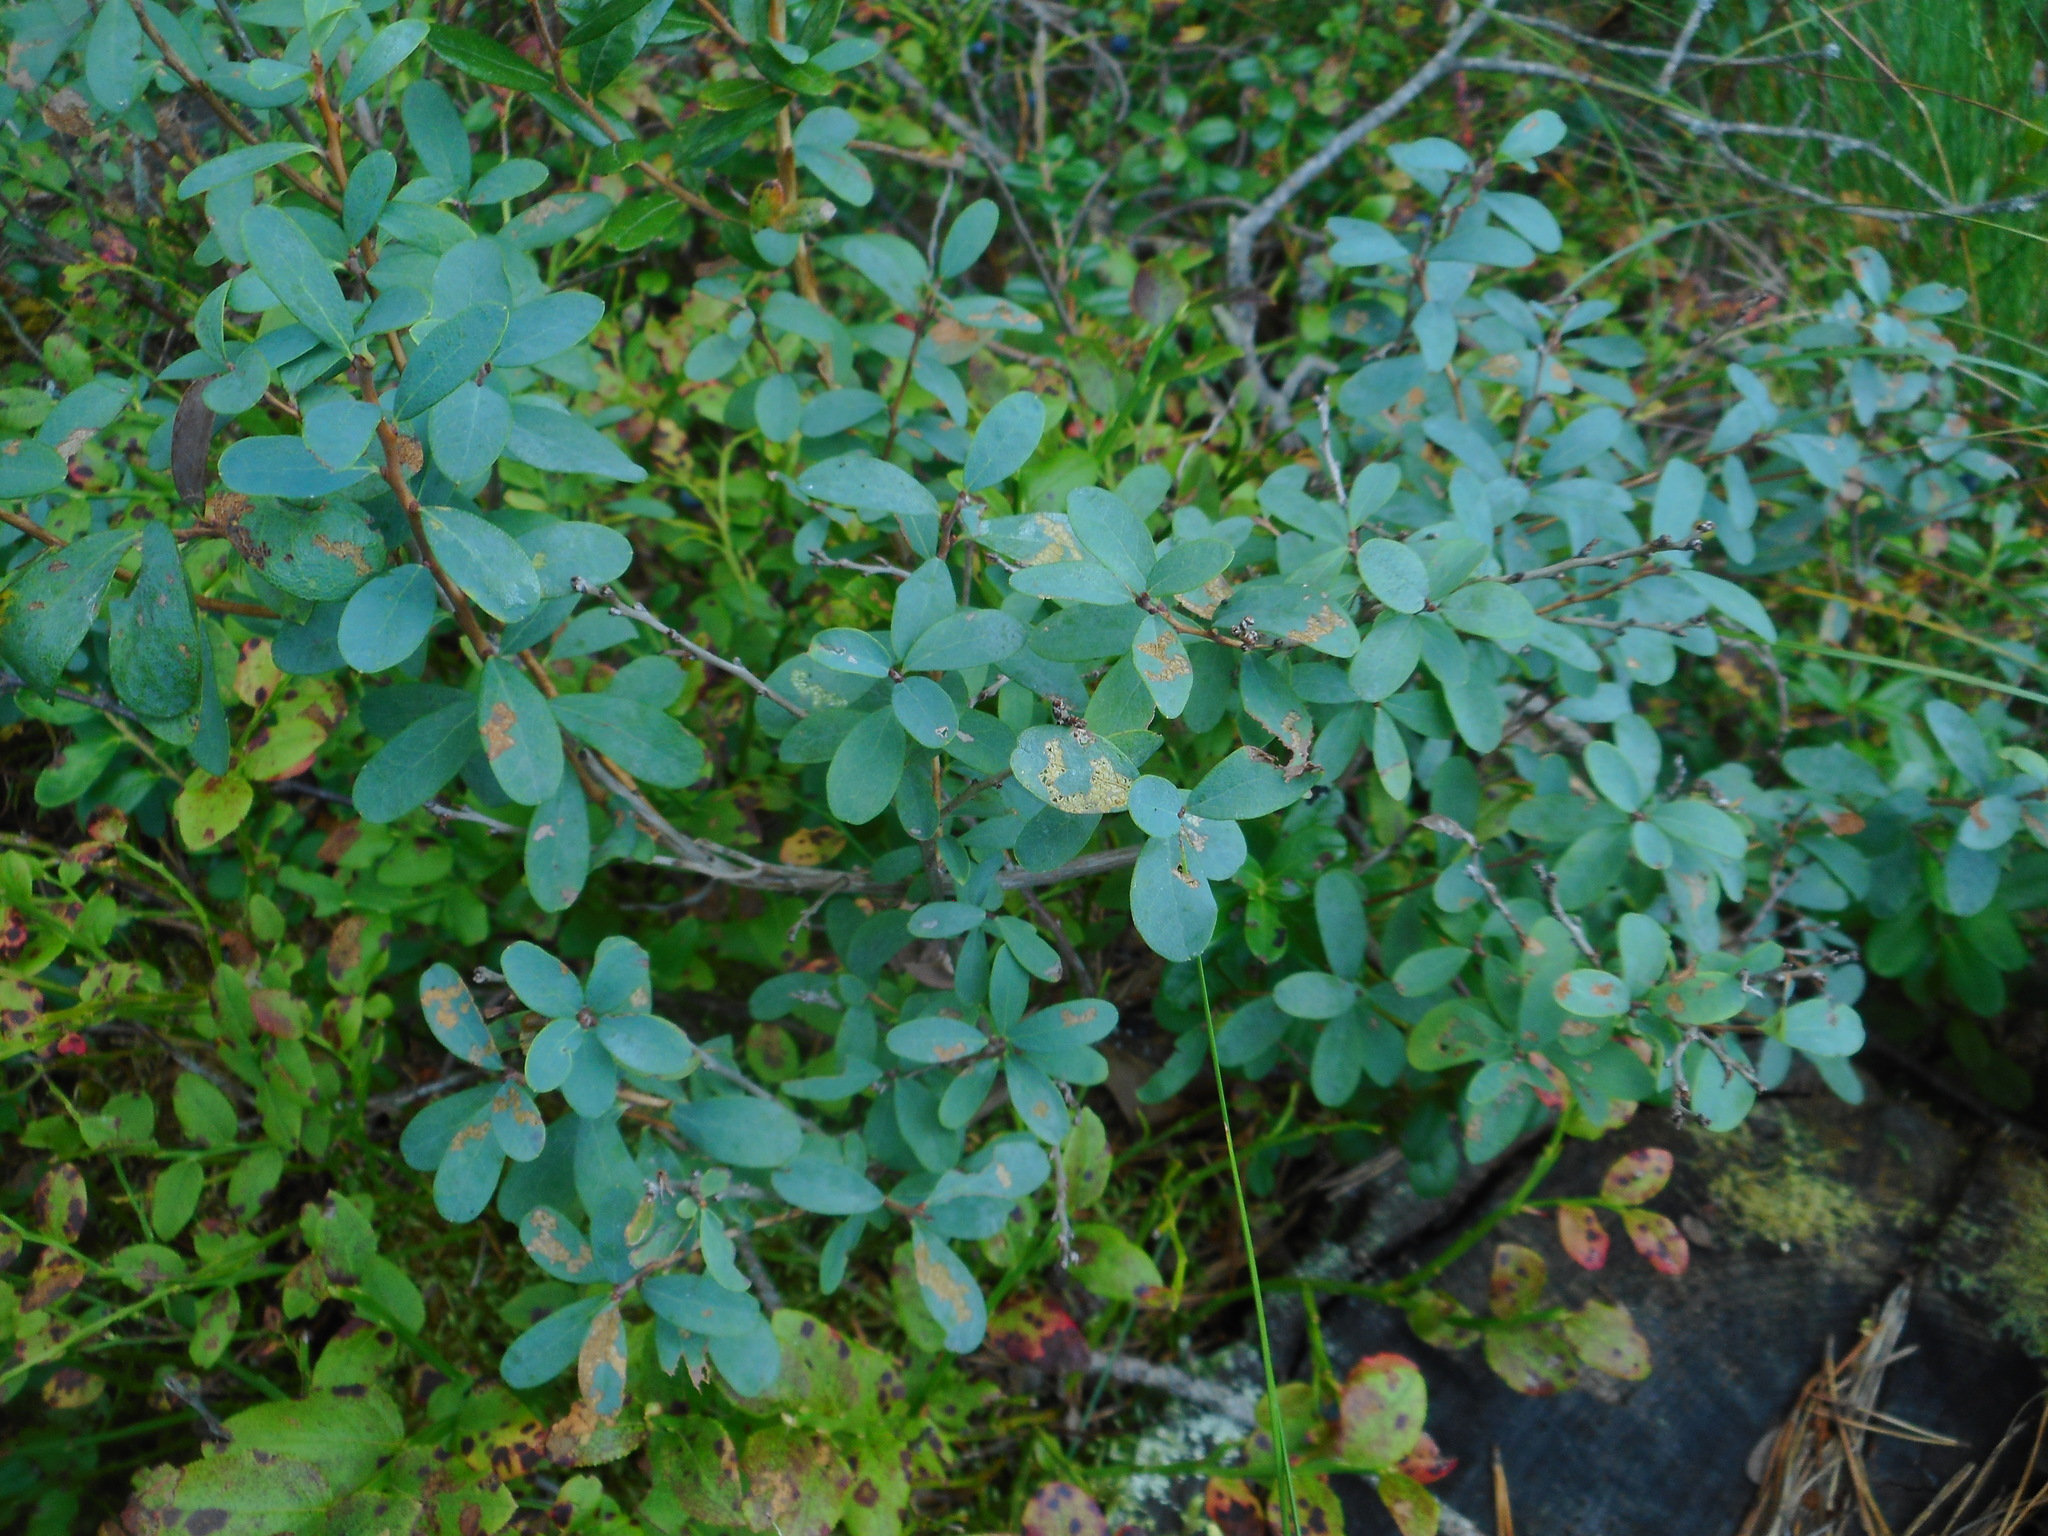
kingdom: Plantae
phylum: Tracheophyta
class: Magnoliopsida
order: Ericales
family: Ericaceae
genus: Vaccinium
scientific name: Vaccinium uliginosum
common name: Bog bilberry
